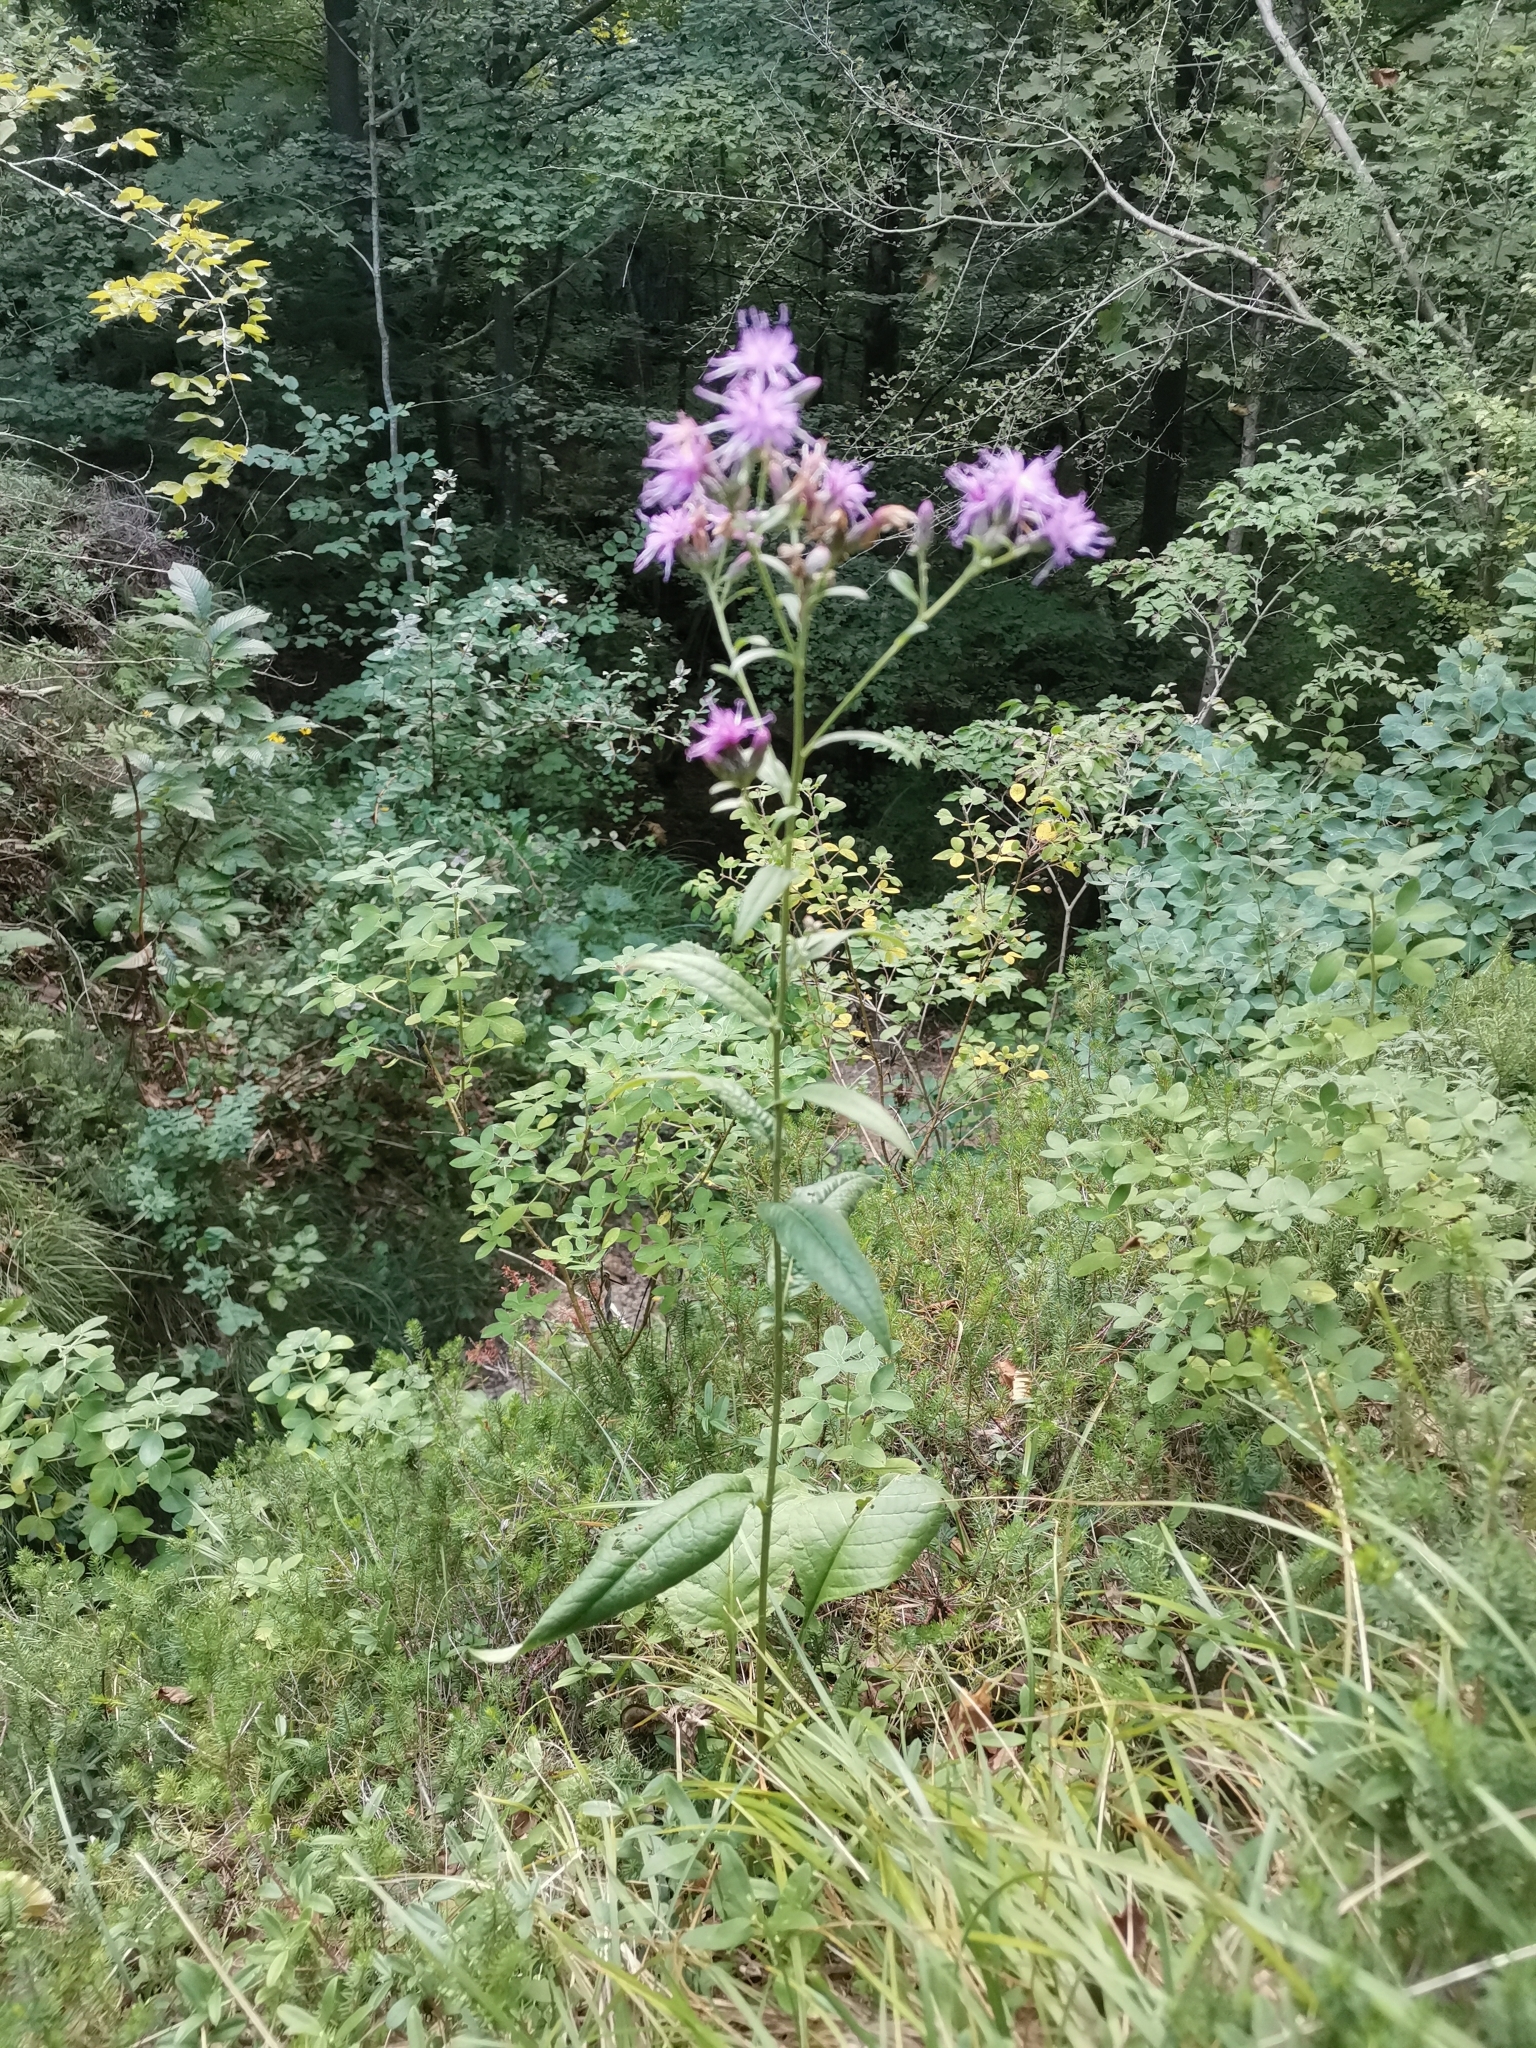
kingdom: Plantae
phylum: Tracheophyta
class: Magnoliopsida
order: Asterales
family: Asteraceae
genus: Serratula
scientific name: Serratula tinctoria
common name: Saw-wort
